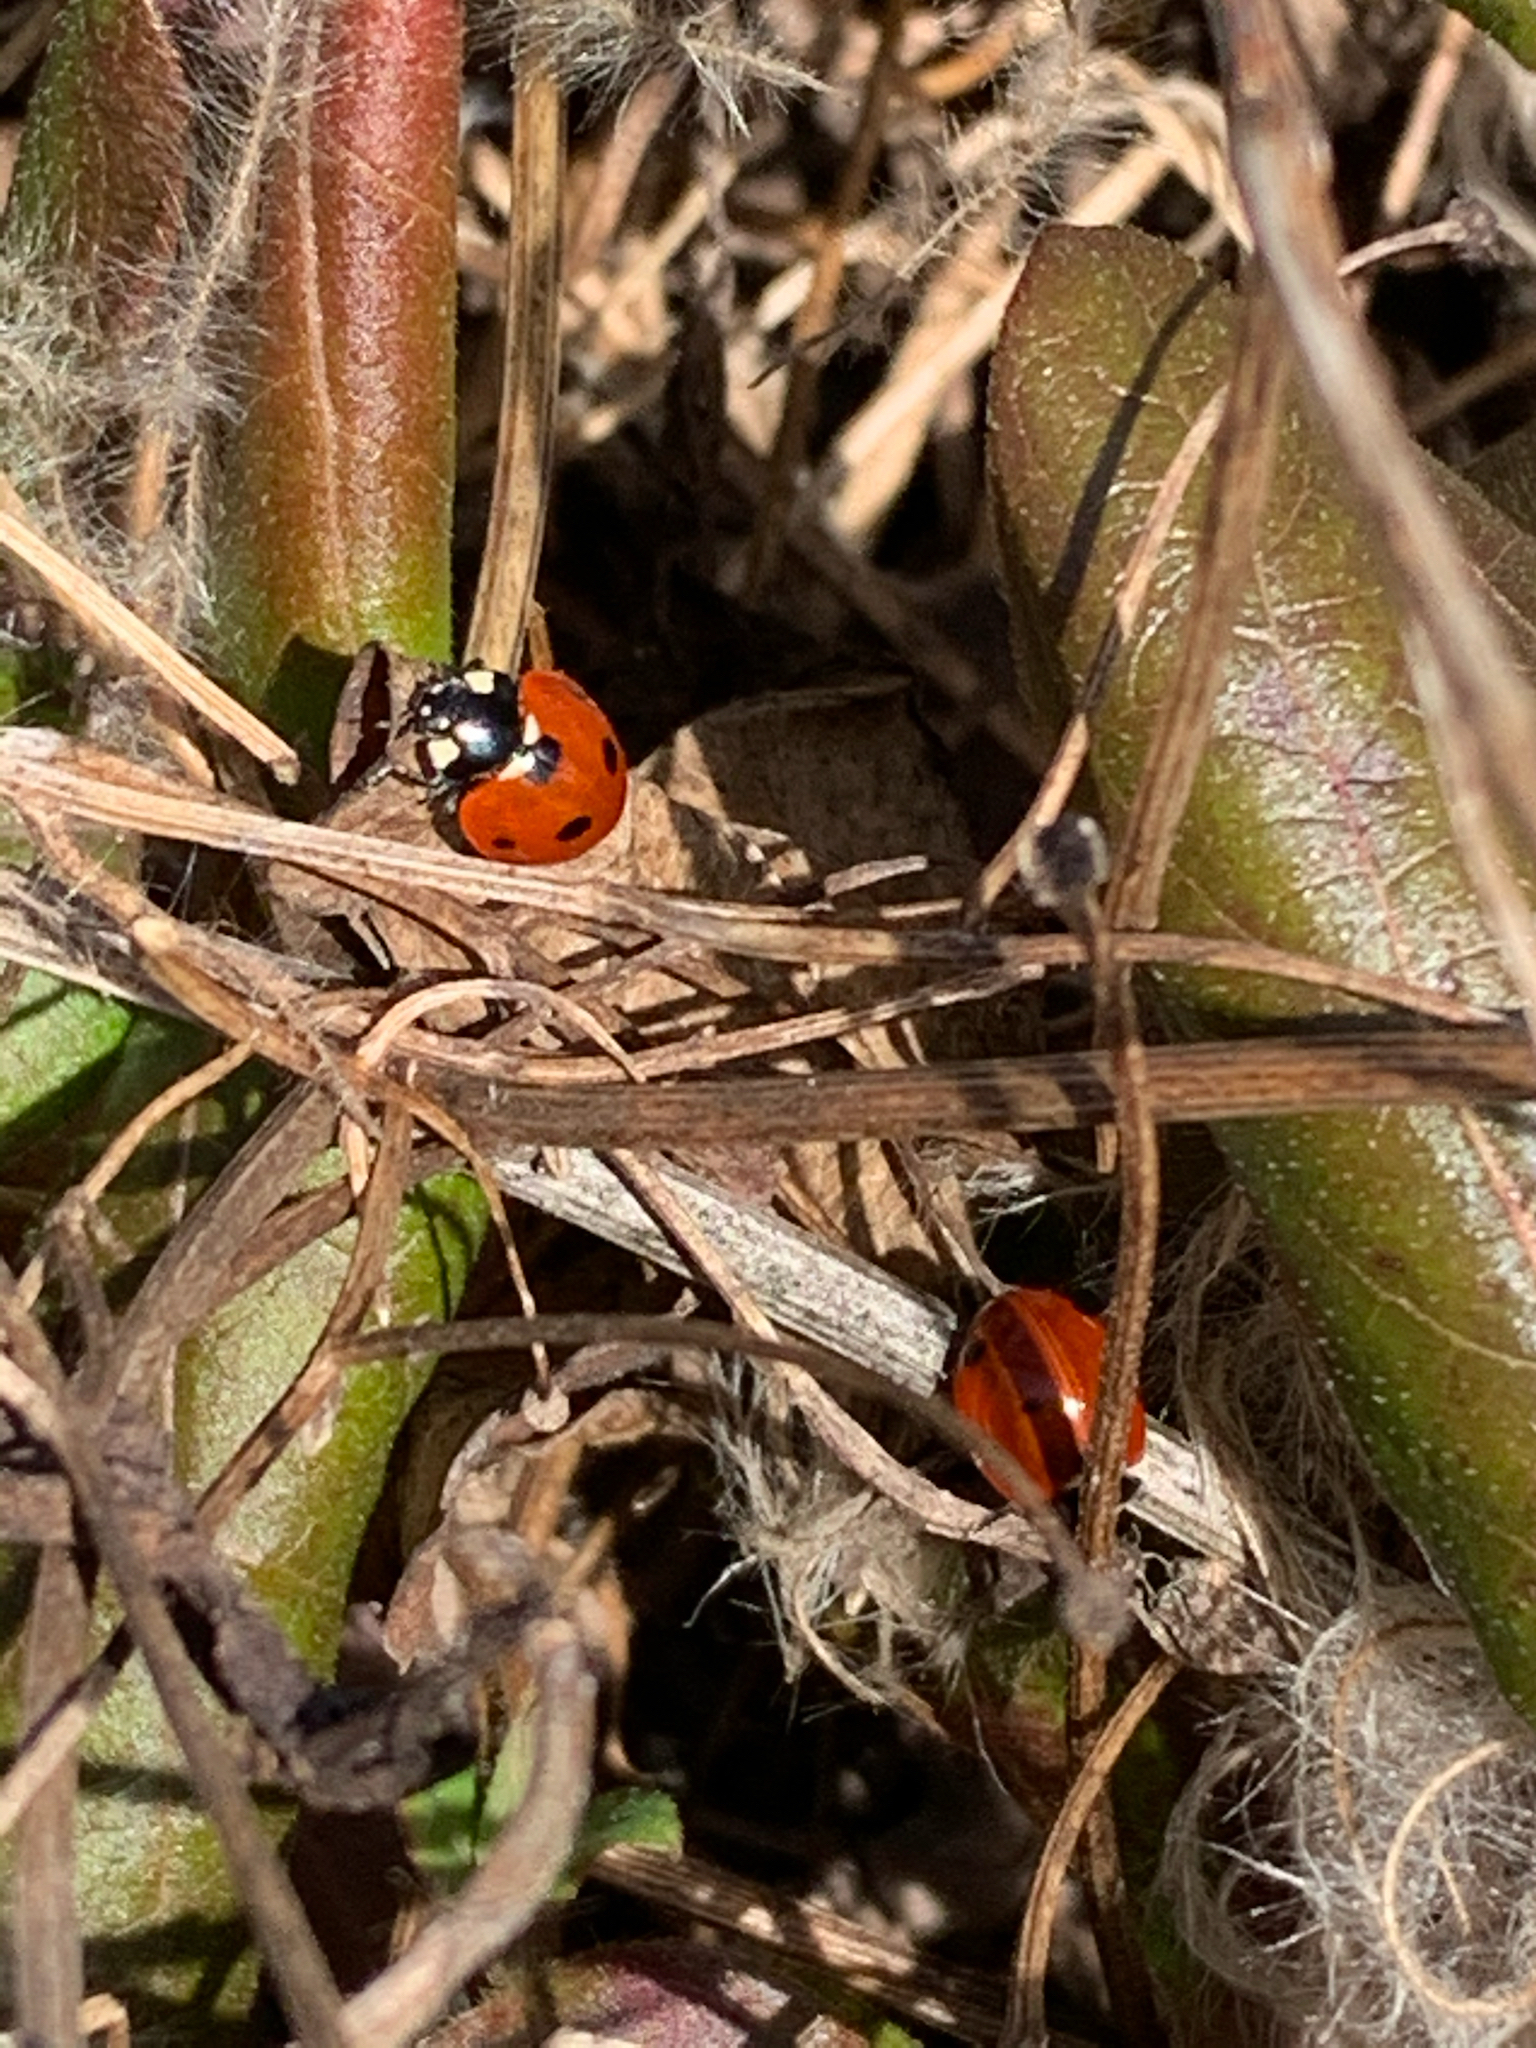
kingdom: Animalia
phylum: Arthropoda
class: Insecta
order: Coleoptera
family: Coccinellidae
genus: Coccinella
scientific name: Coccinella septempunctata
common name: Sevenspotted lady beetle
